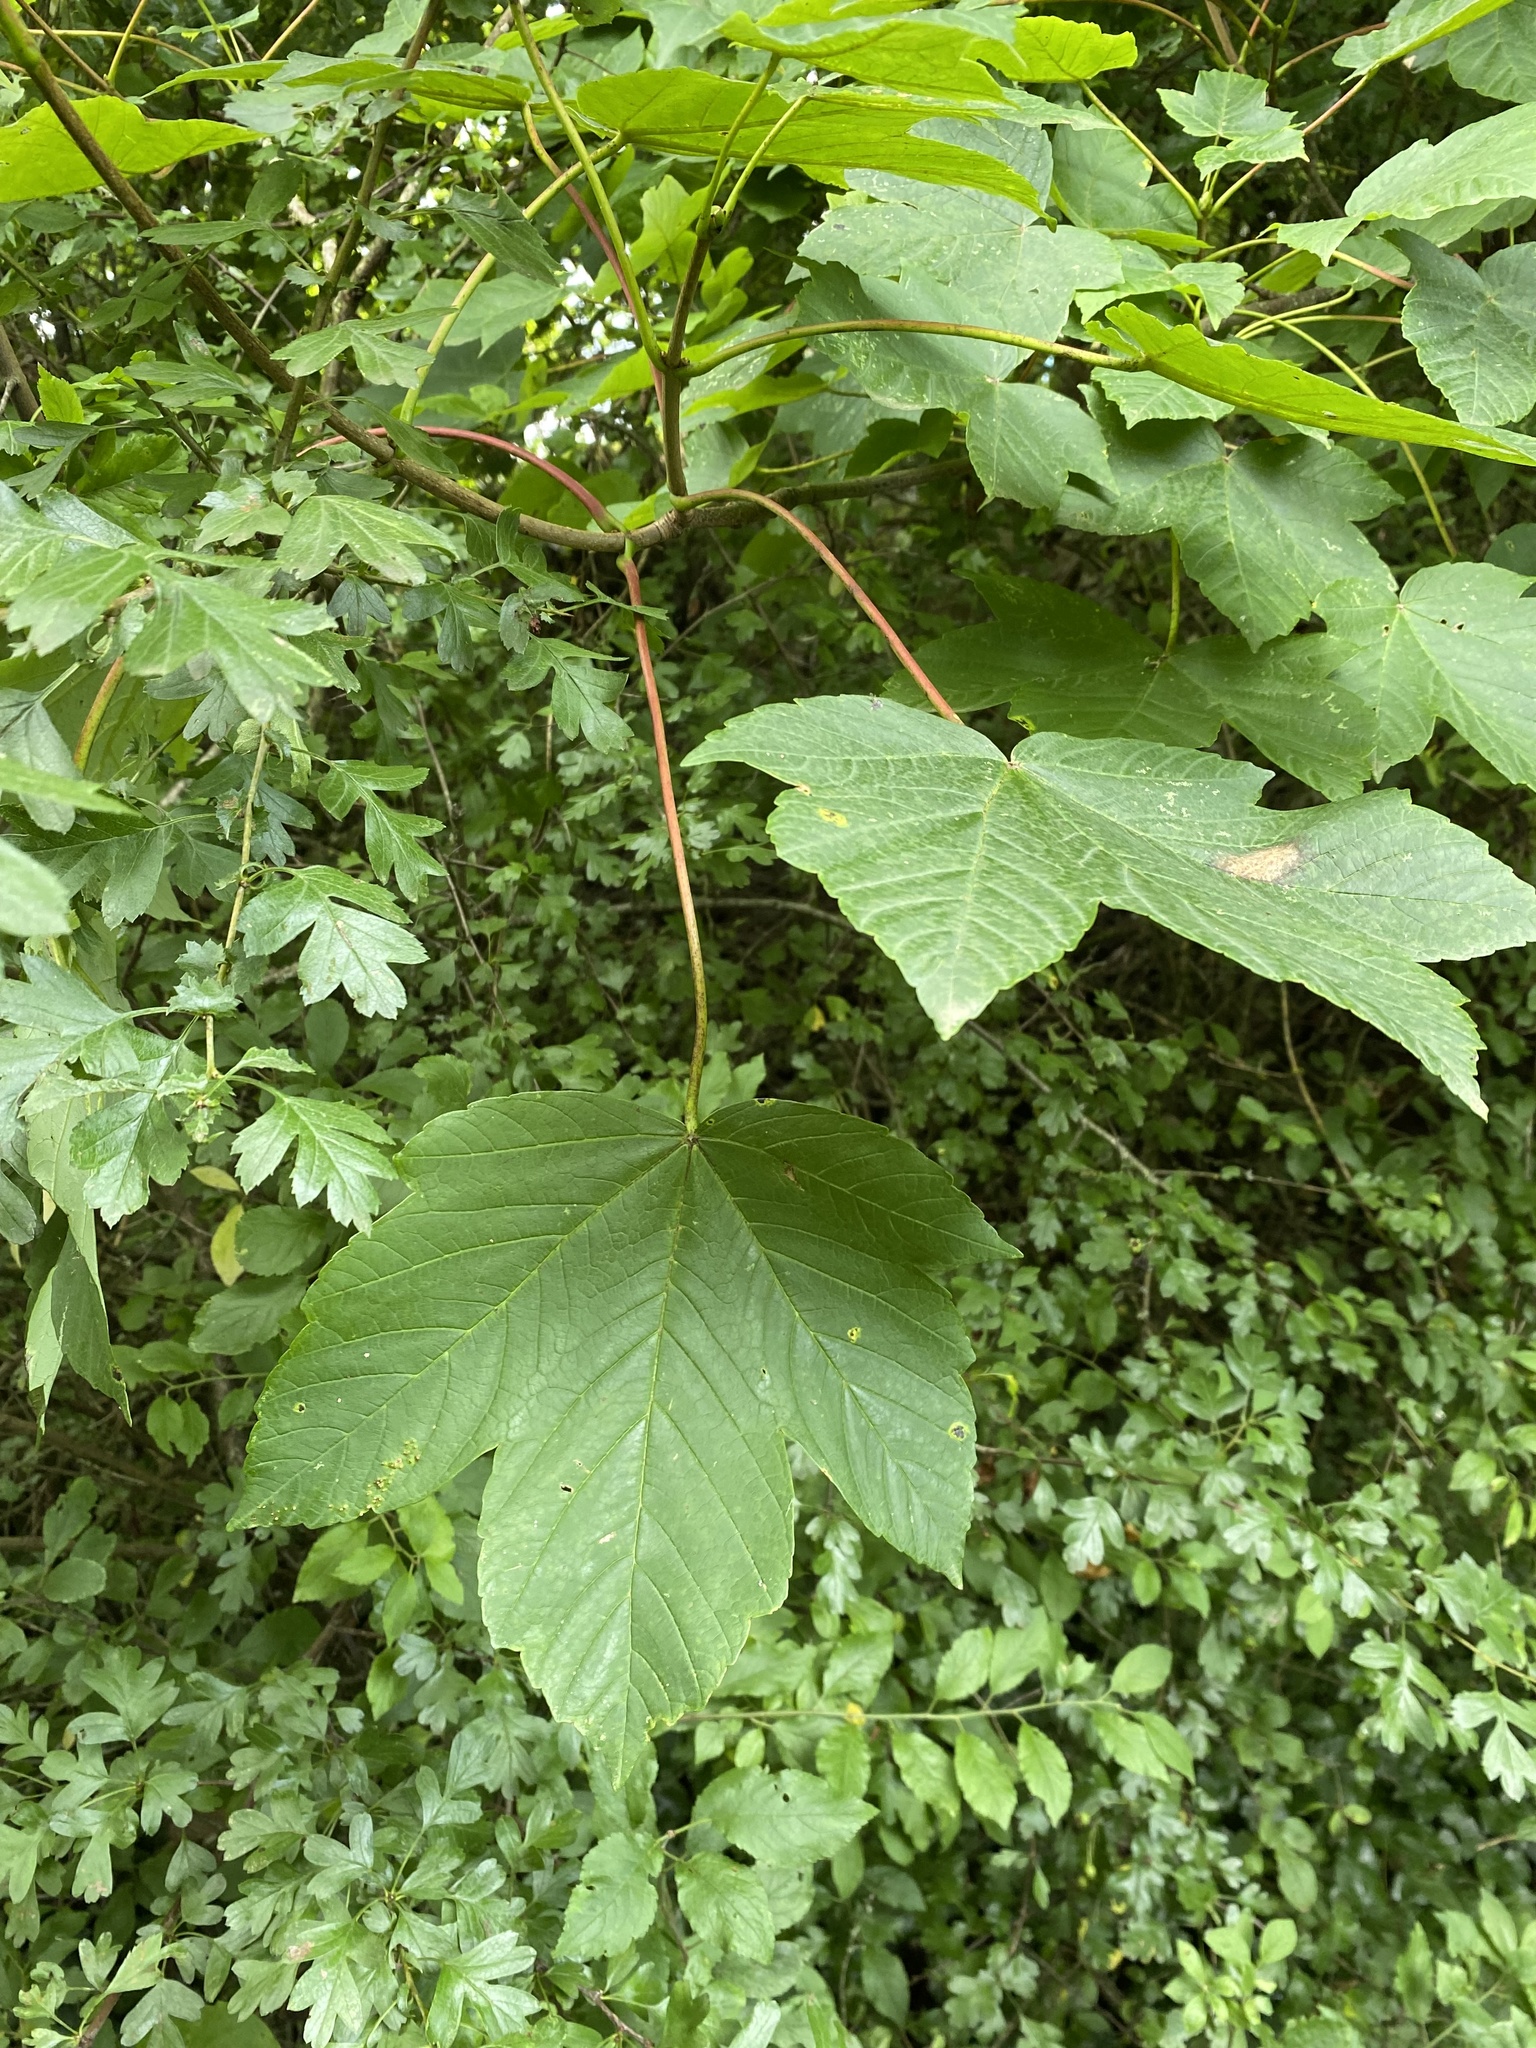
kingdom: Plantae
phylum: Tracheophyta
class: Magnoliopsida
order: Sapindales
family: Sapindaceae
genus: Acer
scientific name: Acer pseudoplatanus
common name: Sycamore
